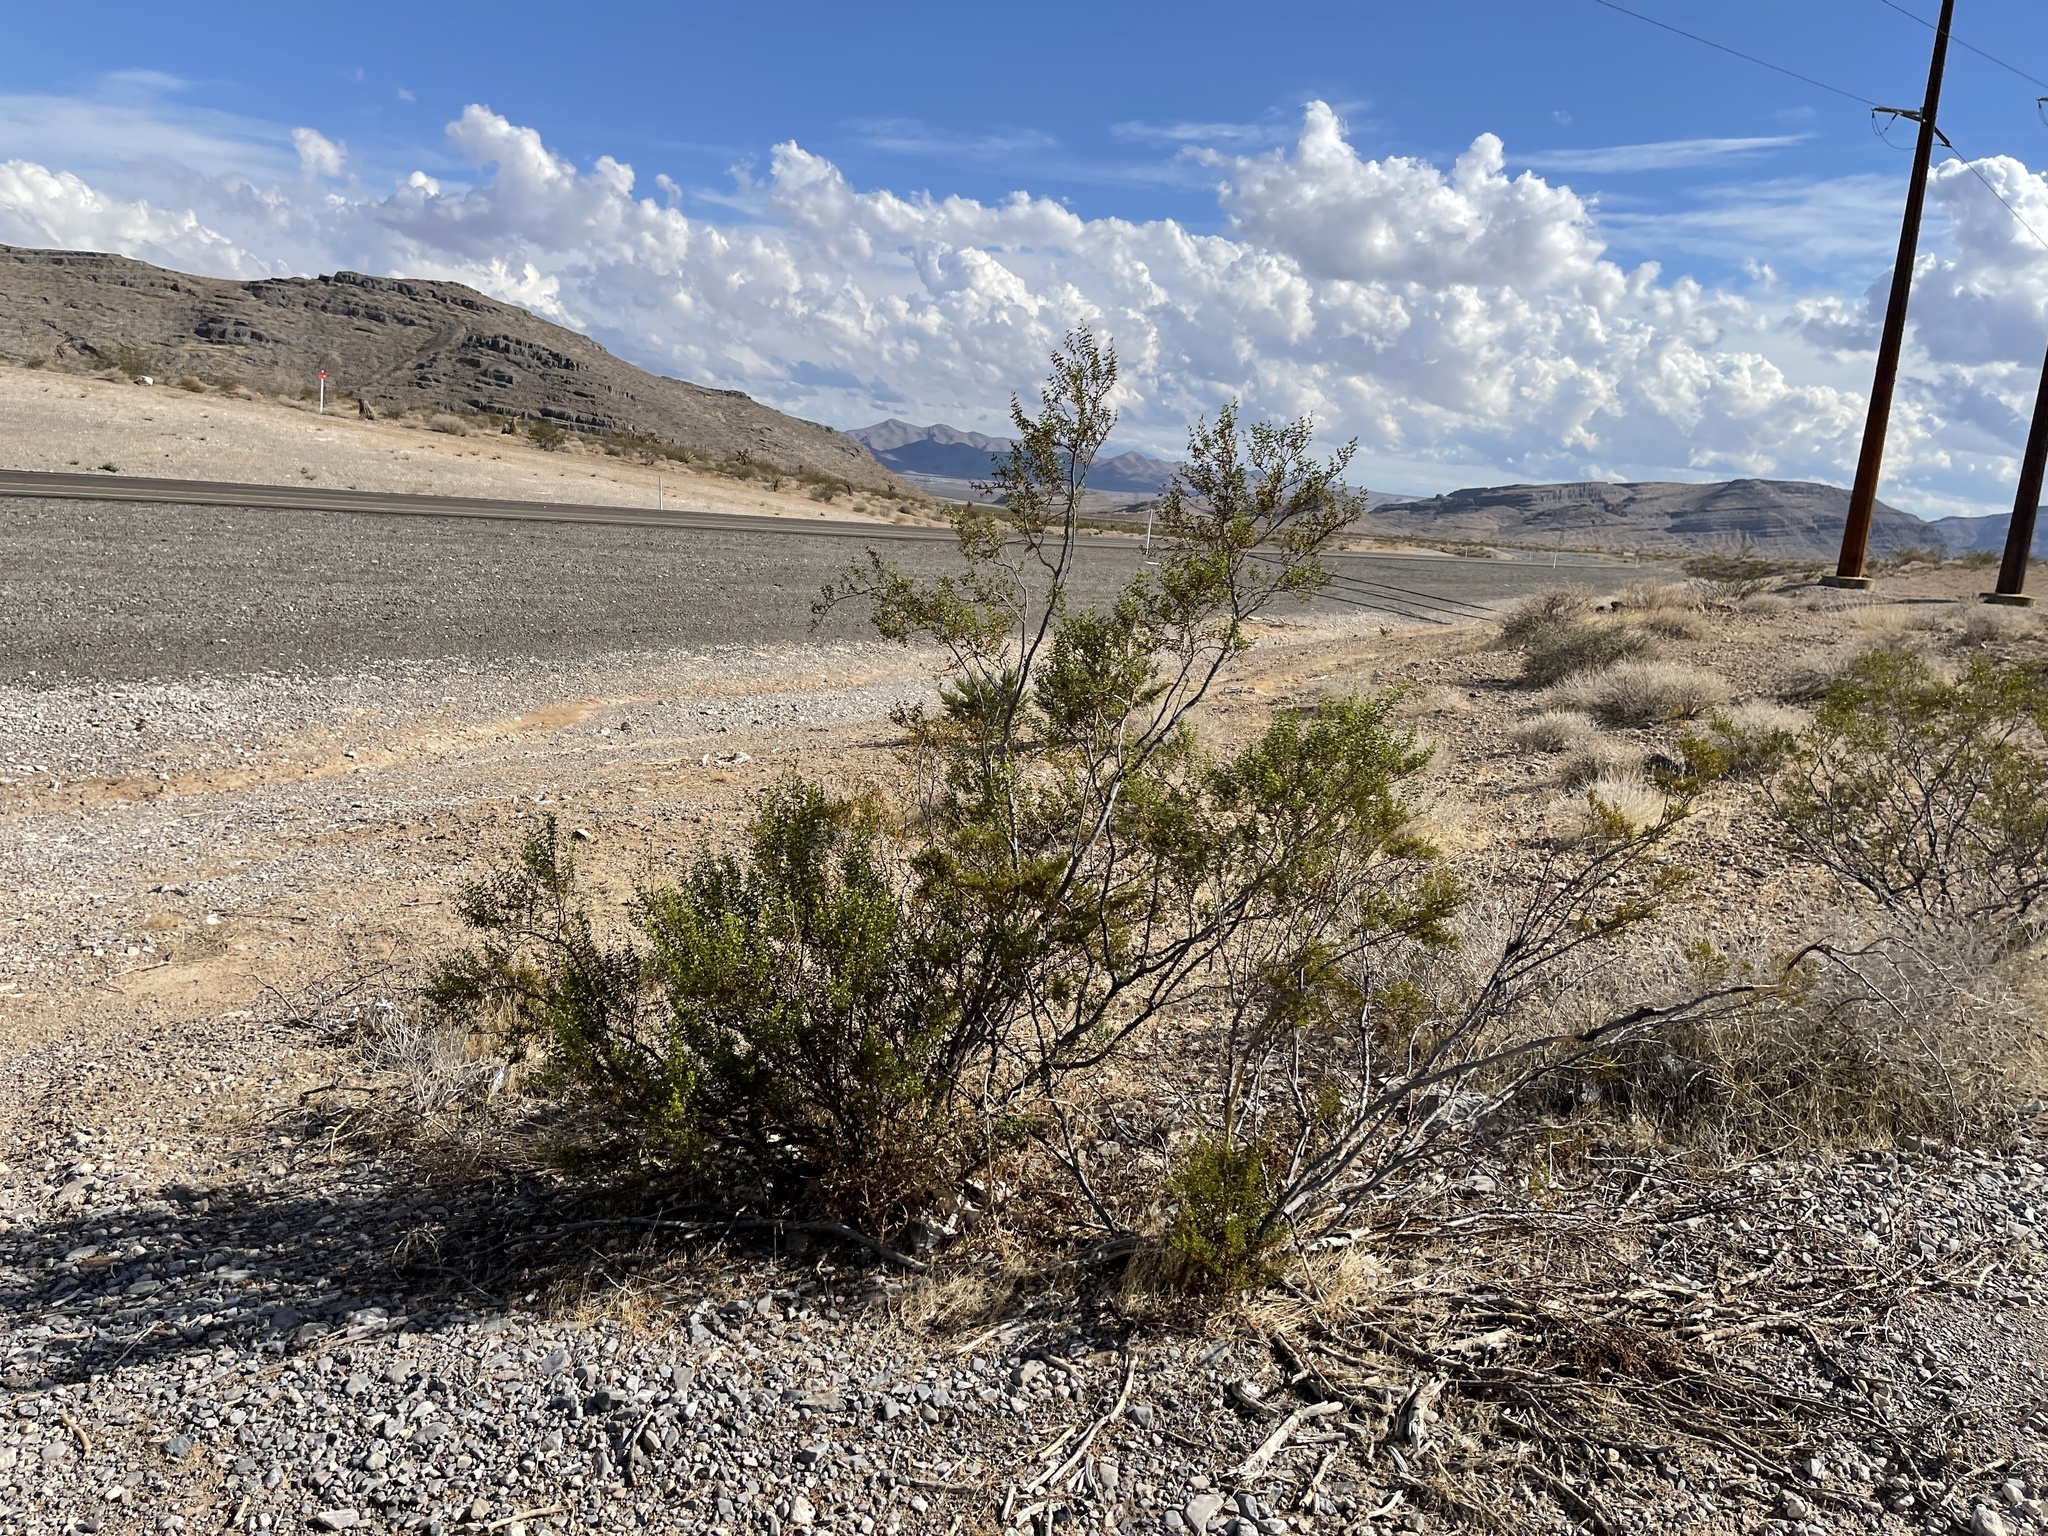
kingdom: Plantae
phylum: Tracheophyta
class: Magnoliopsida
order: Zygophyllales
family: Zygophyllaceae
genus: Larrea
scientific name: Larrea tridentata
